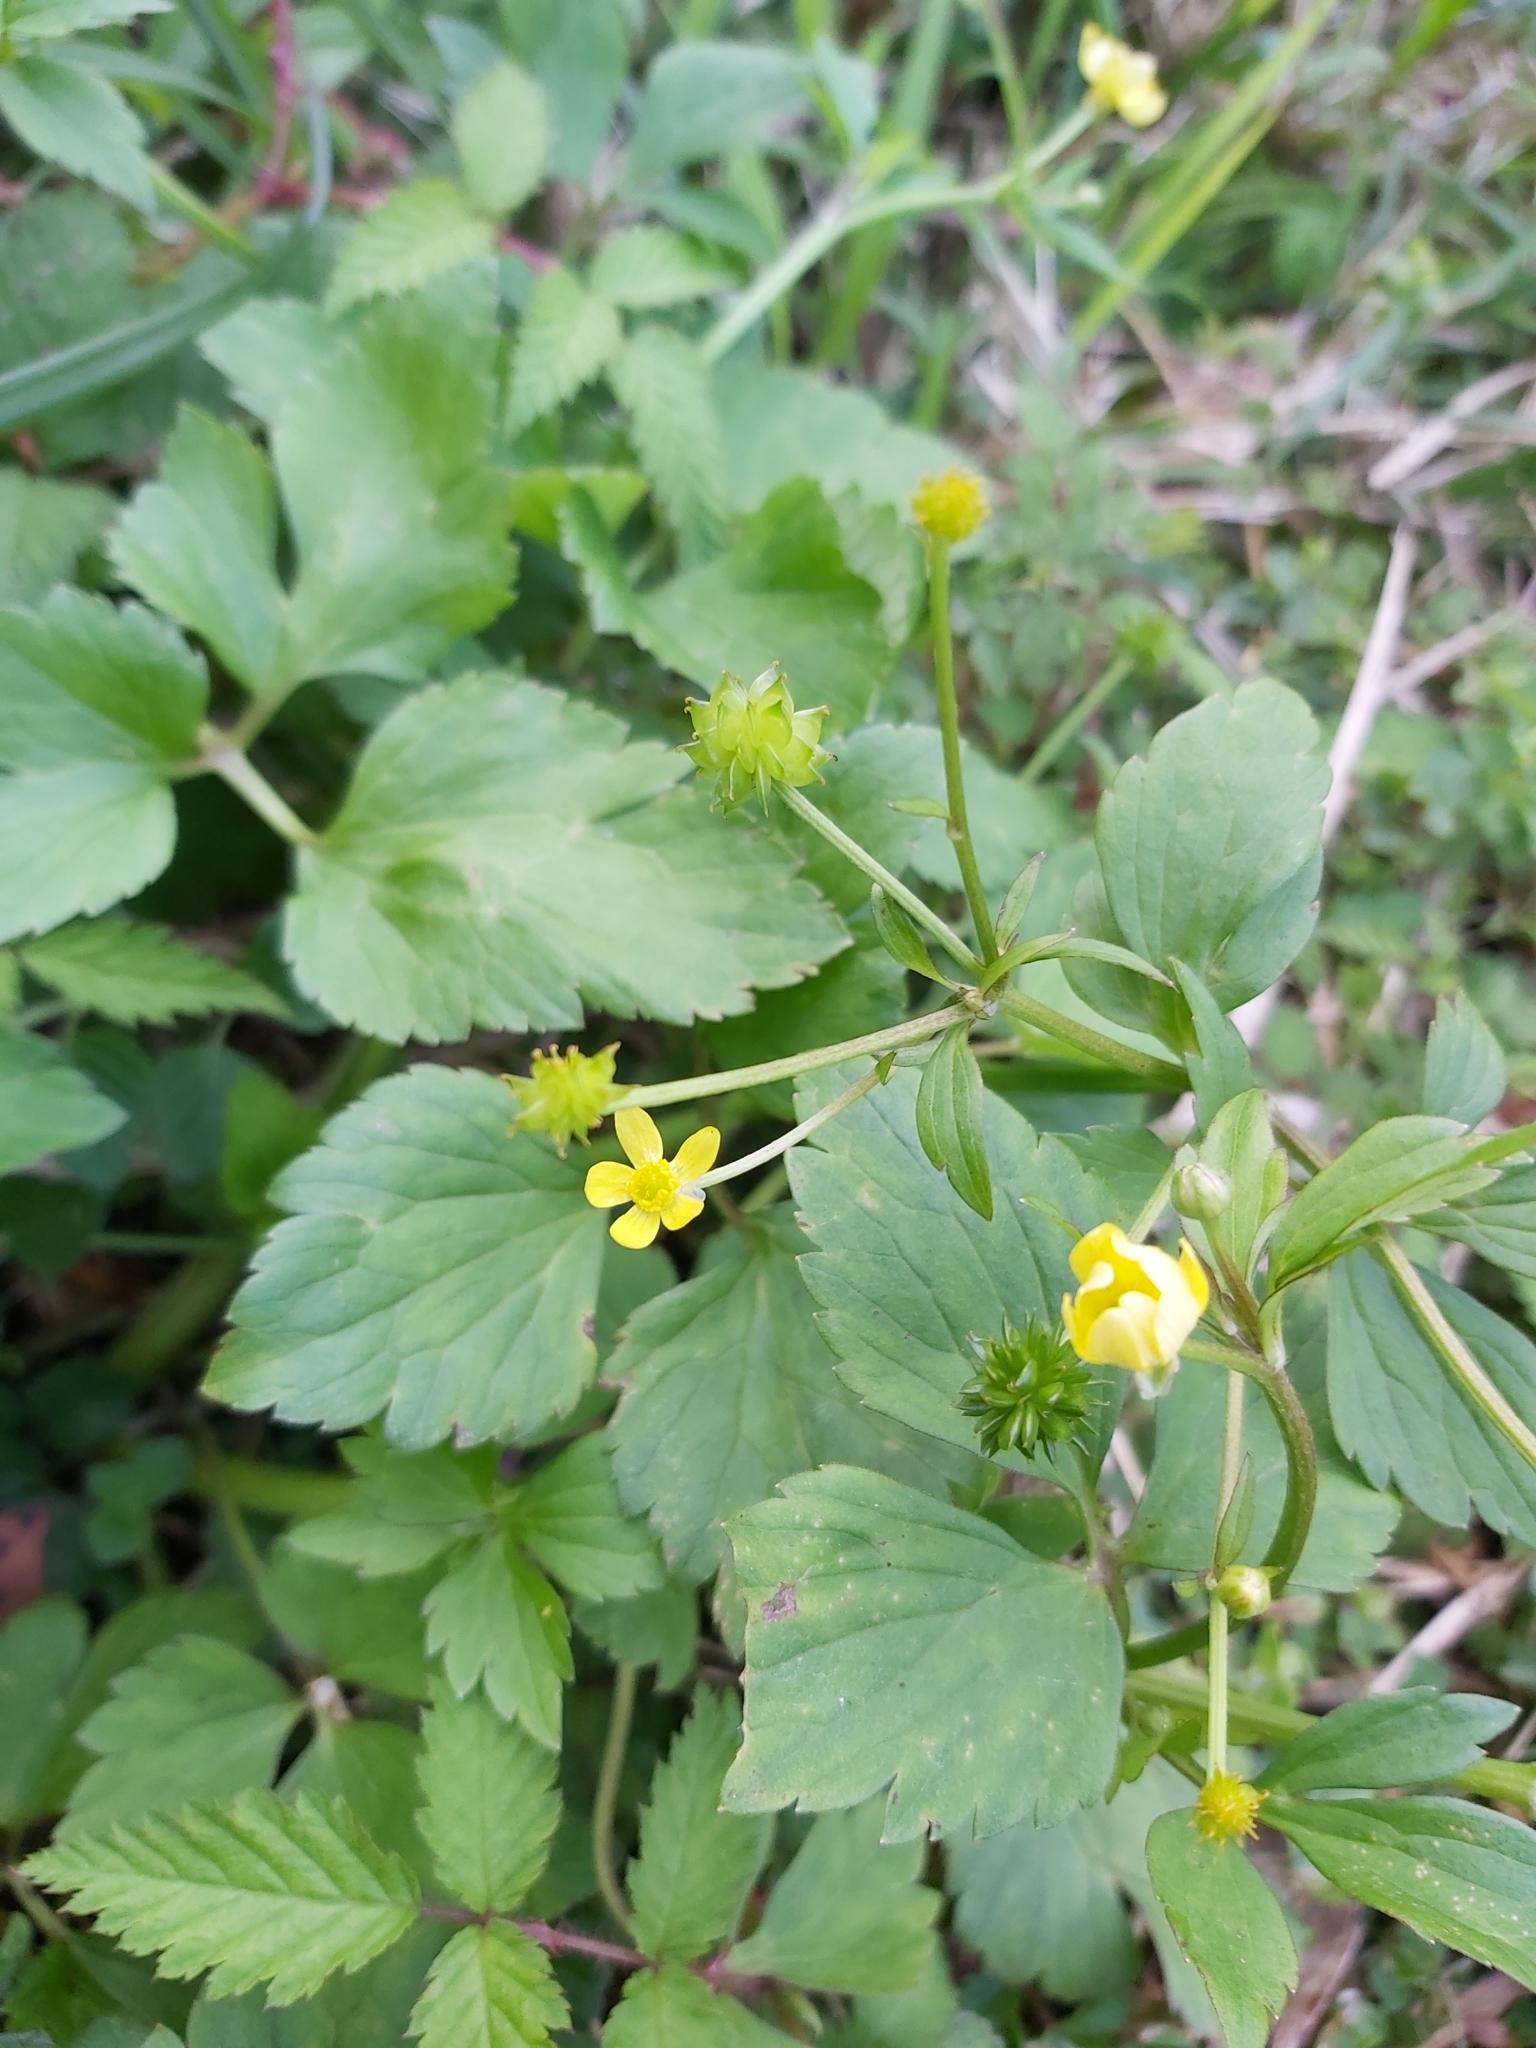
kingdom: Plantae
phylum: Tracheophyta
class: Magnoliopsida
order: Ranunculales
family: Ranunculaceae
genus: Ranunculus
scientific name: Ranunculus cantoniensis
